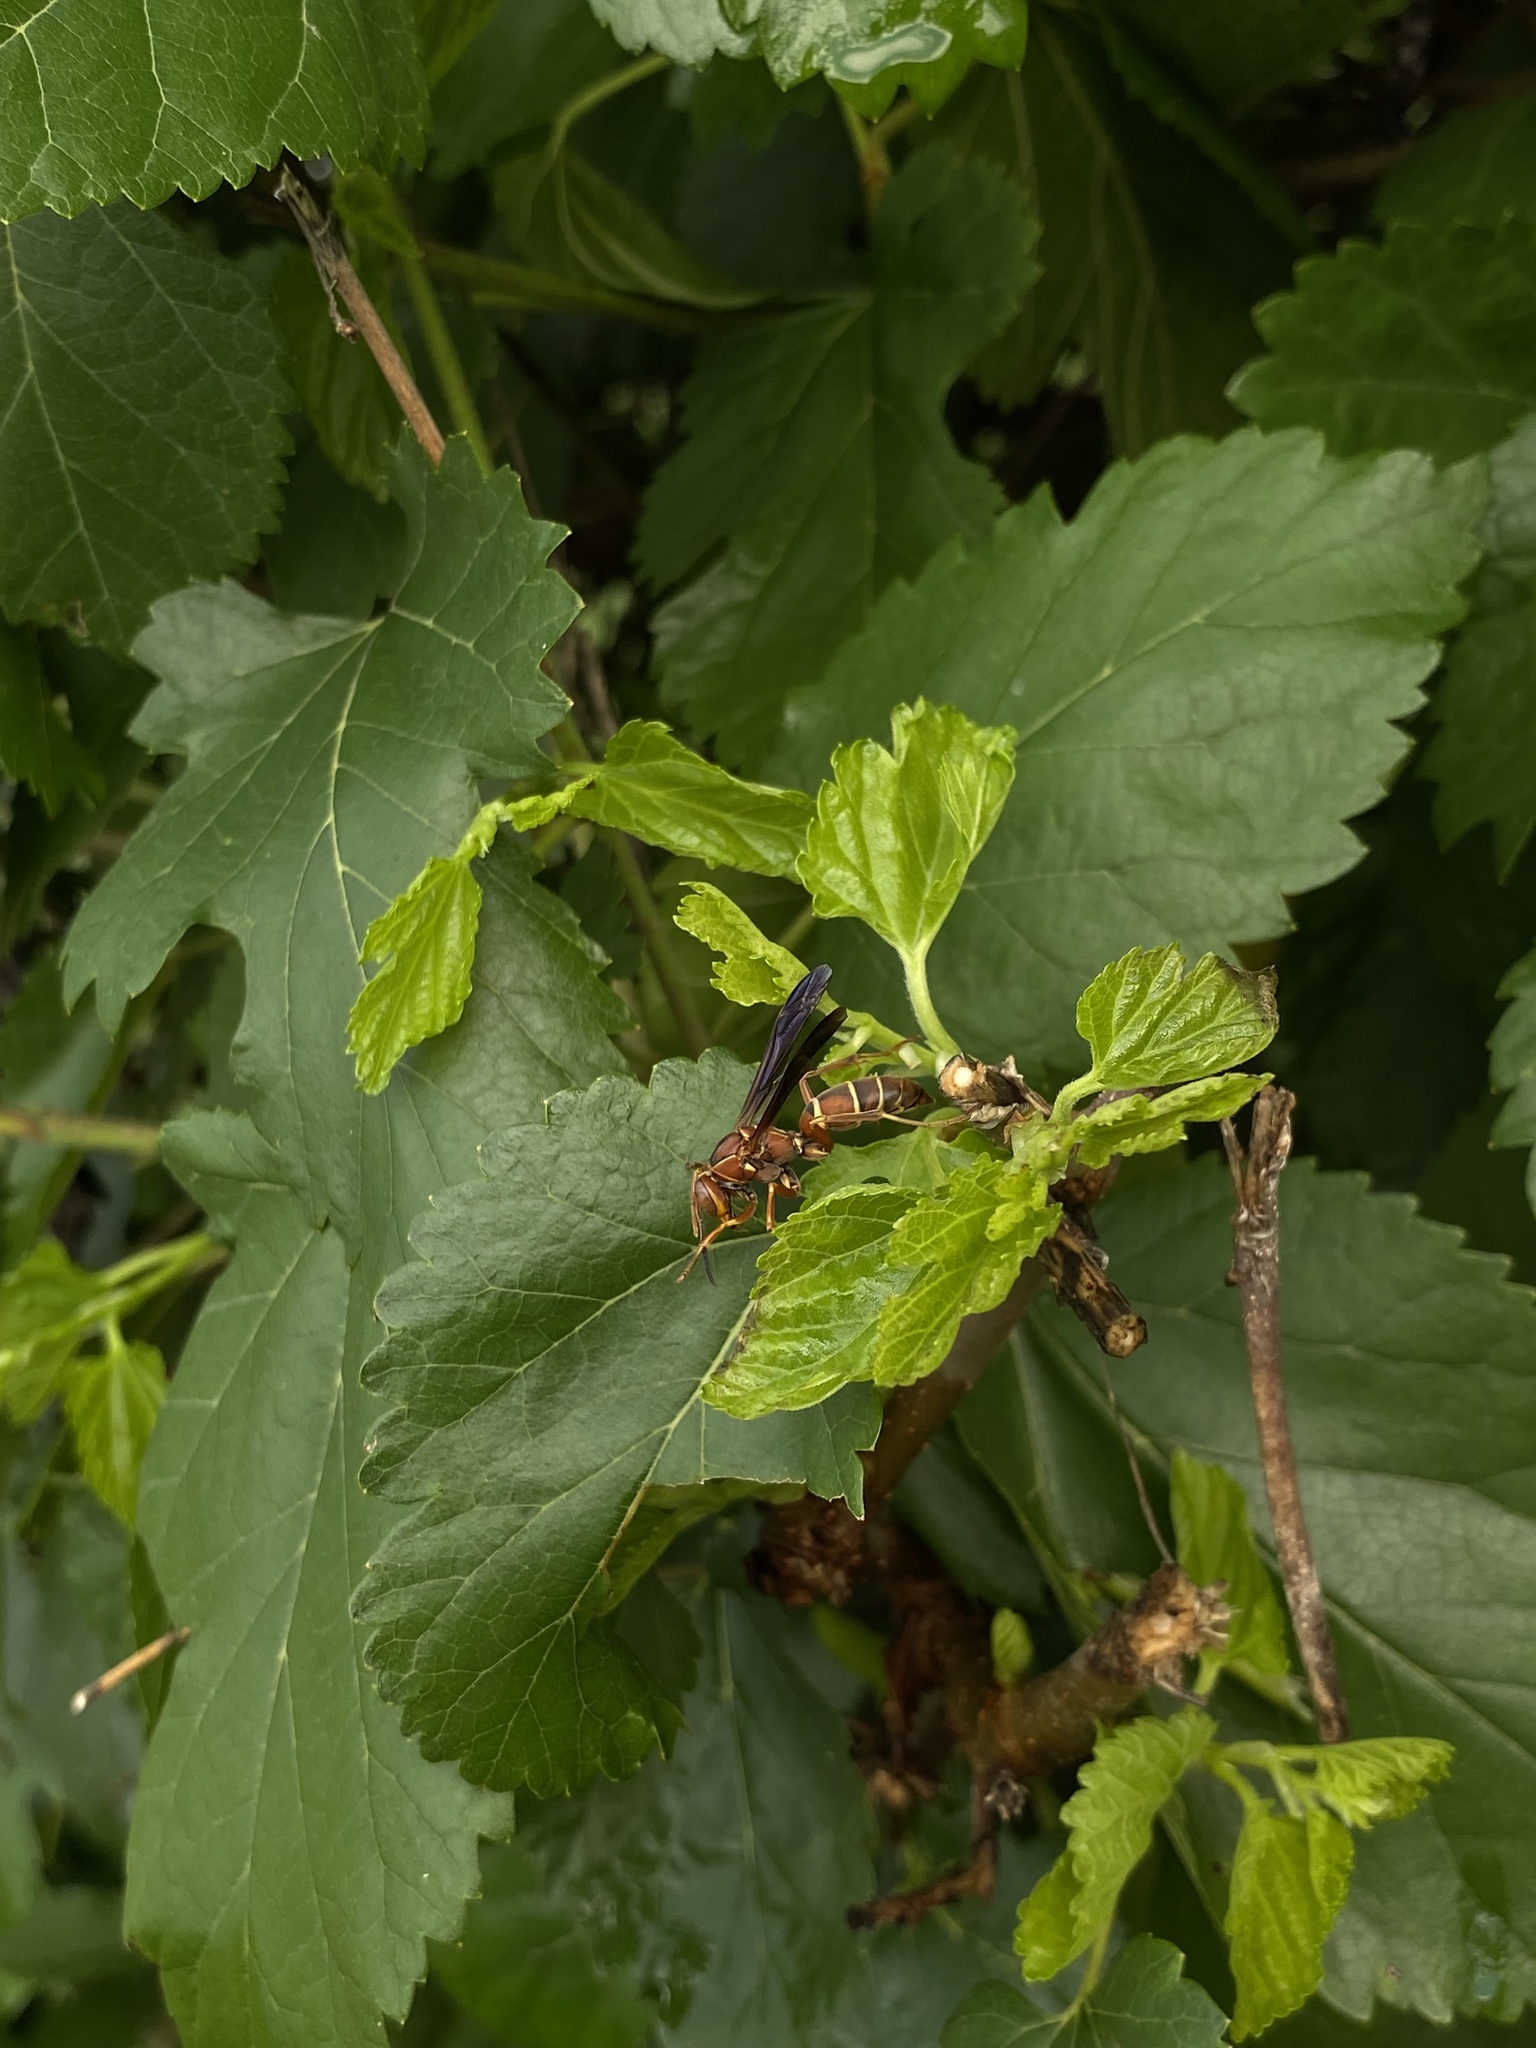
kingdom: Animalia
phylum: Arthropoda
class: Insecta
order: Hymenoptera
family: Eumenidae
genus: Polistes
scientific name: Polistes fuscatus
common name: Dark paper wasp
